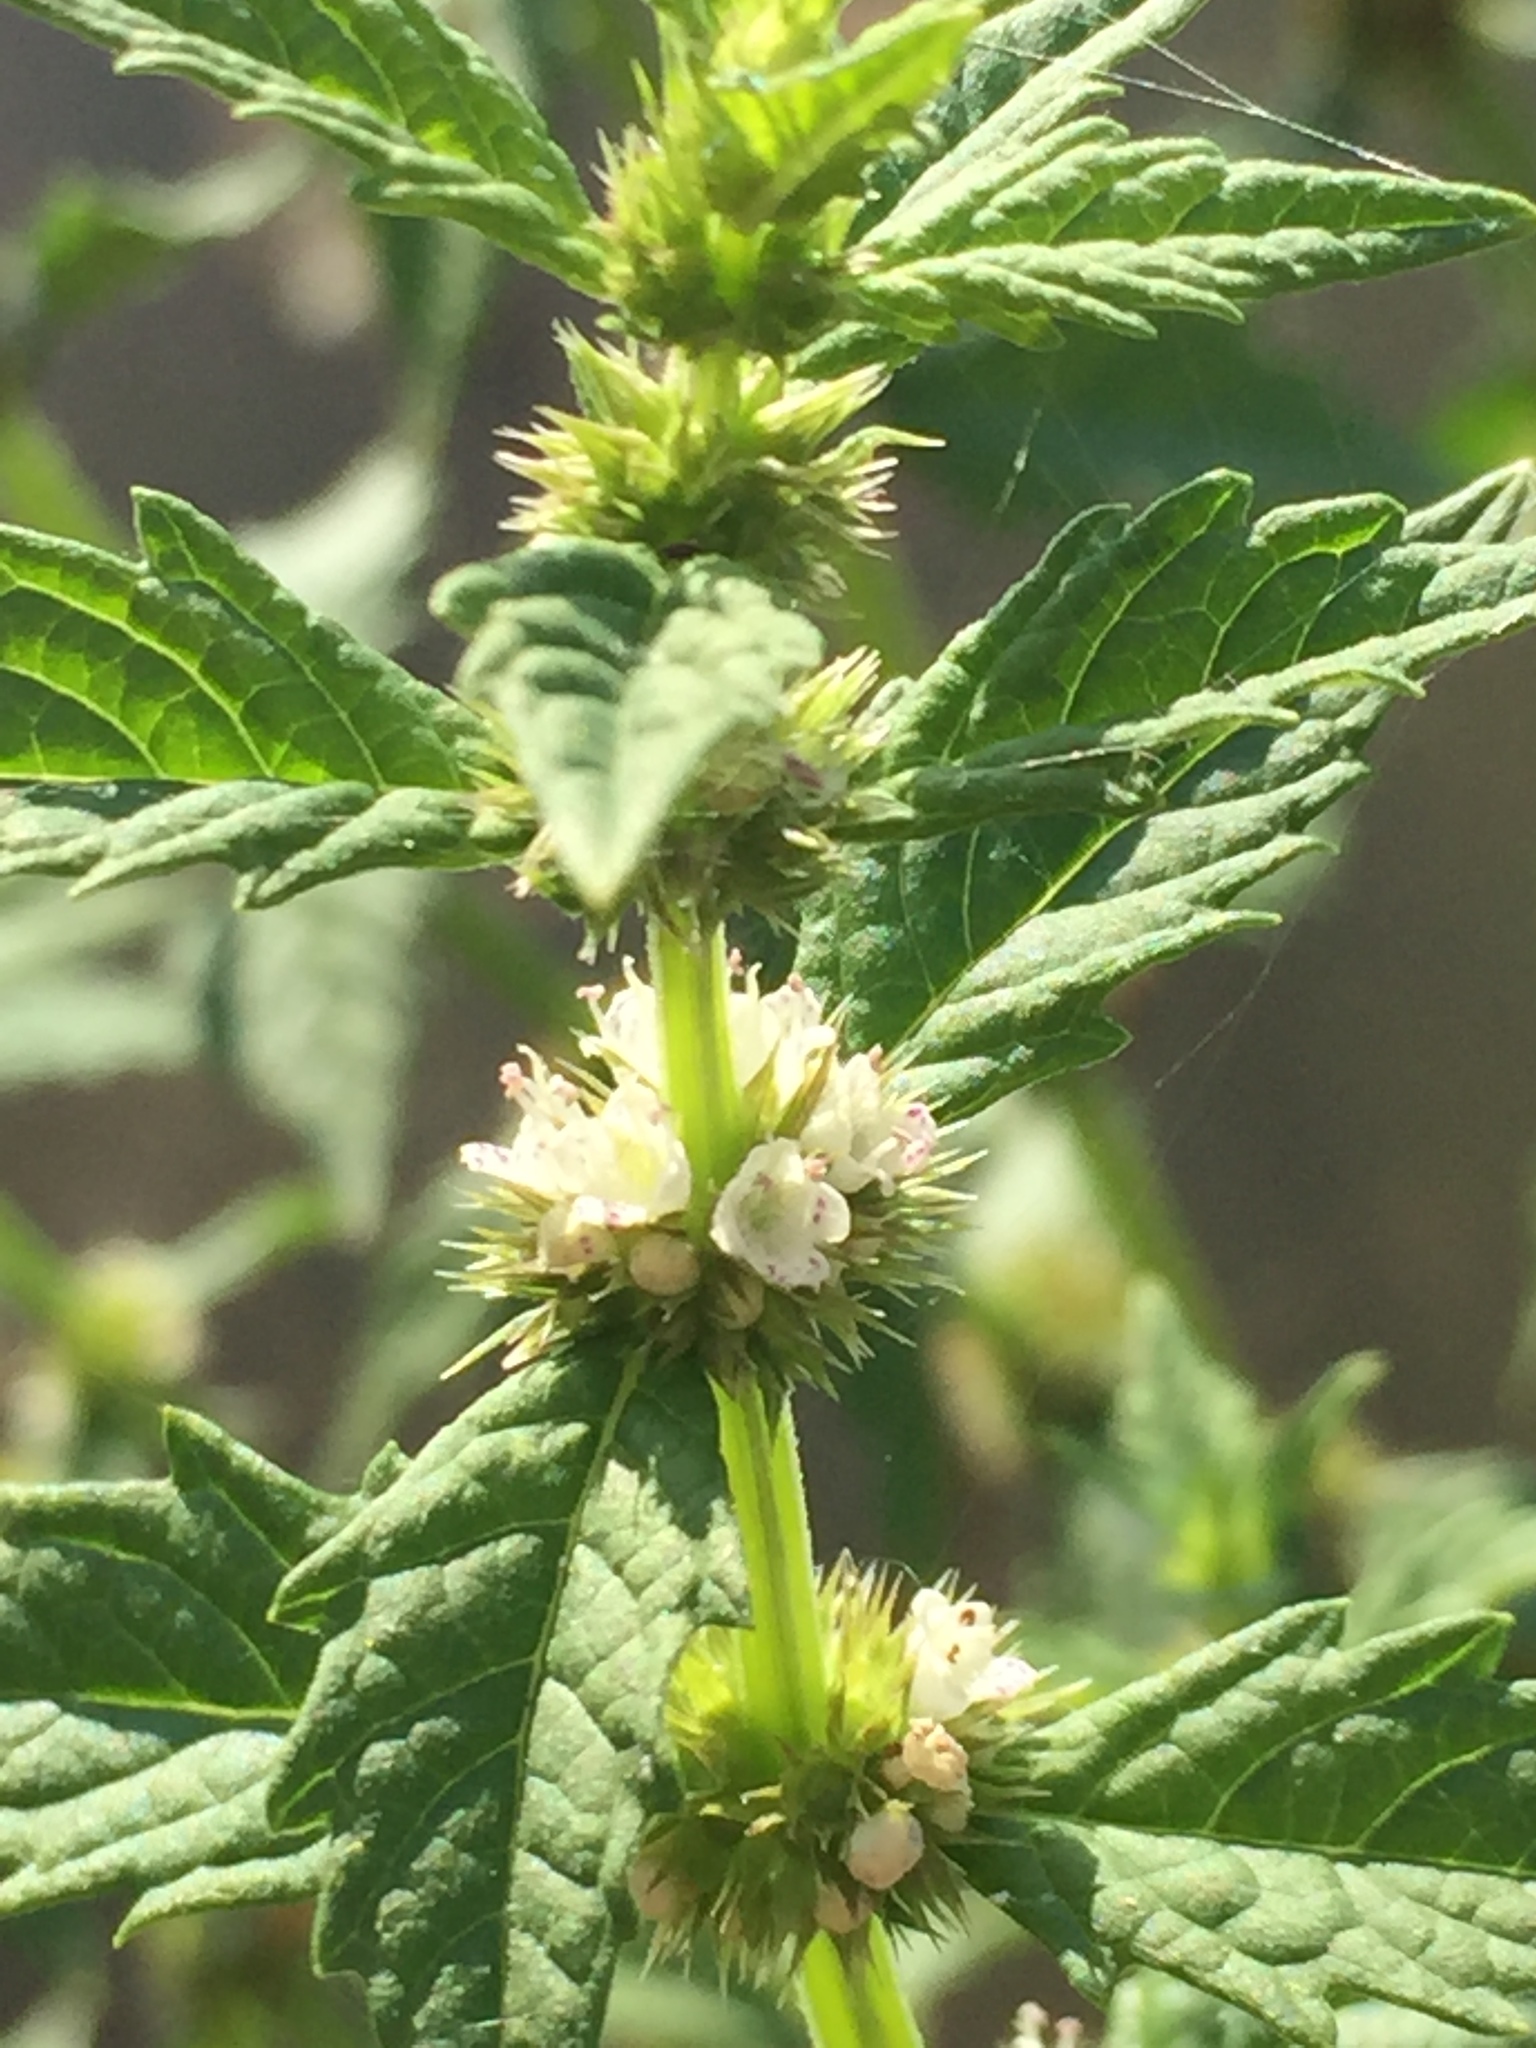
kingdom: Plantae
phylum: Tracheophyta
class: Magnoliopsida
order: Lamiales
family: Lamiaceae
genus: Lycopus
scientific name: Lycopus europaeus
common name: European bugleweed
